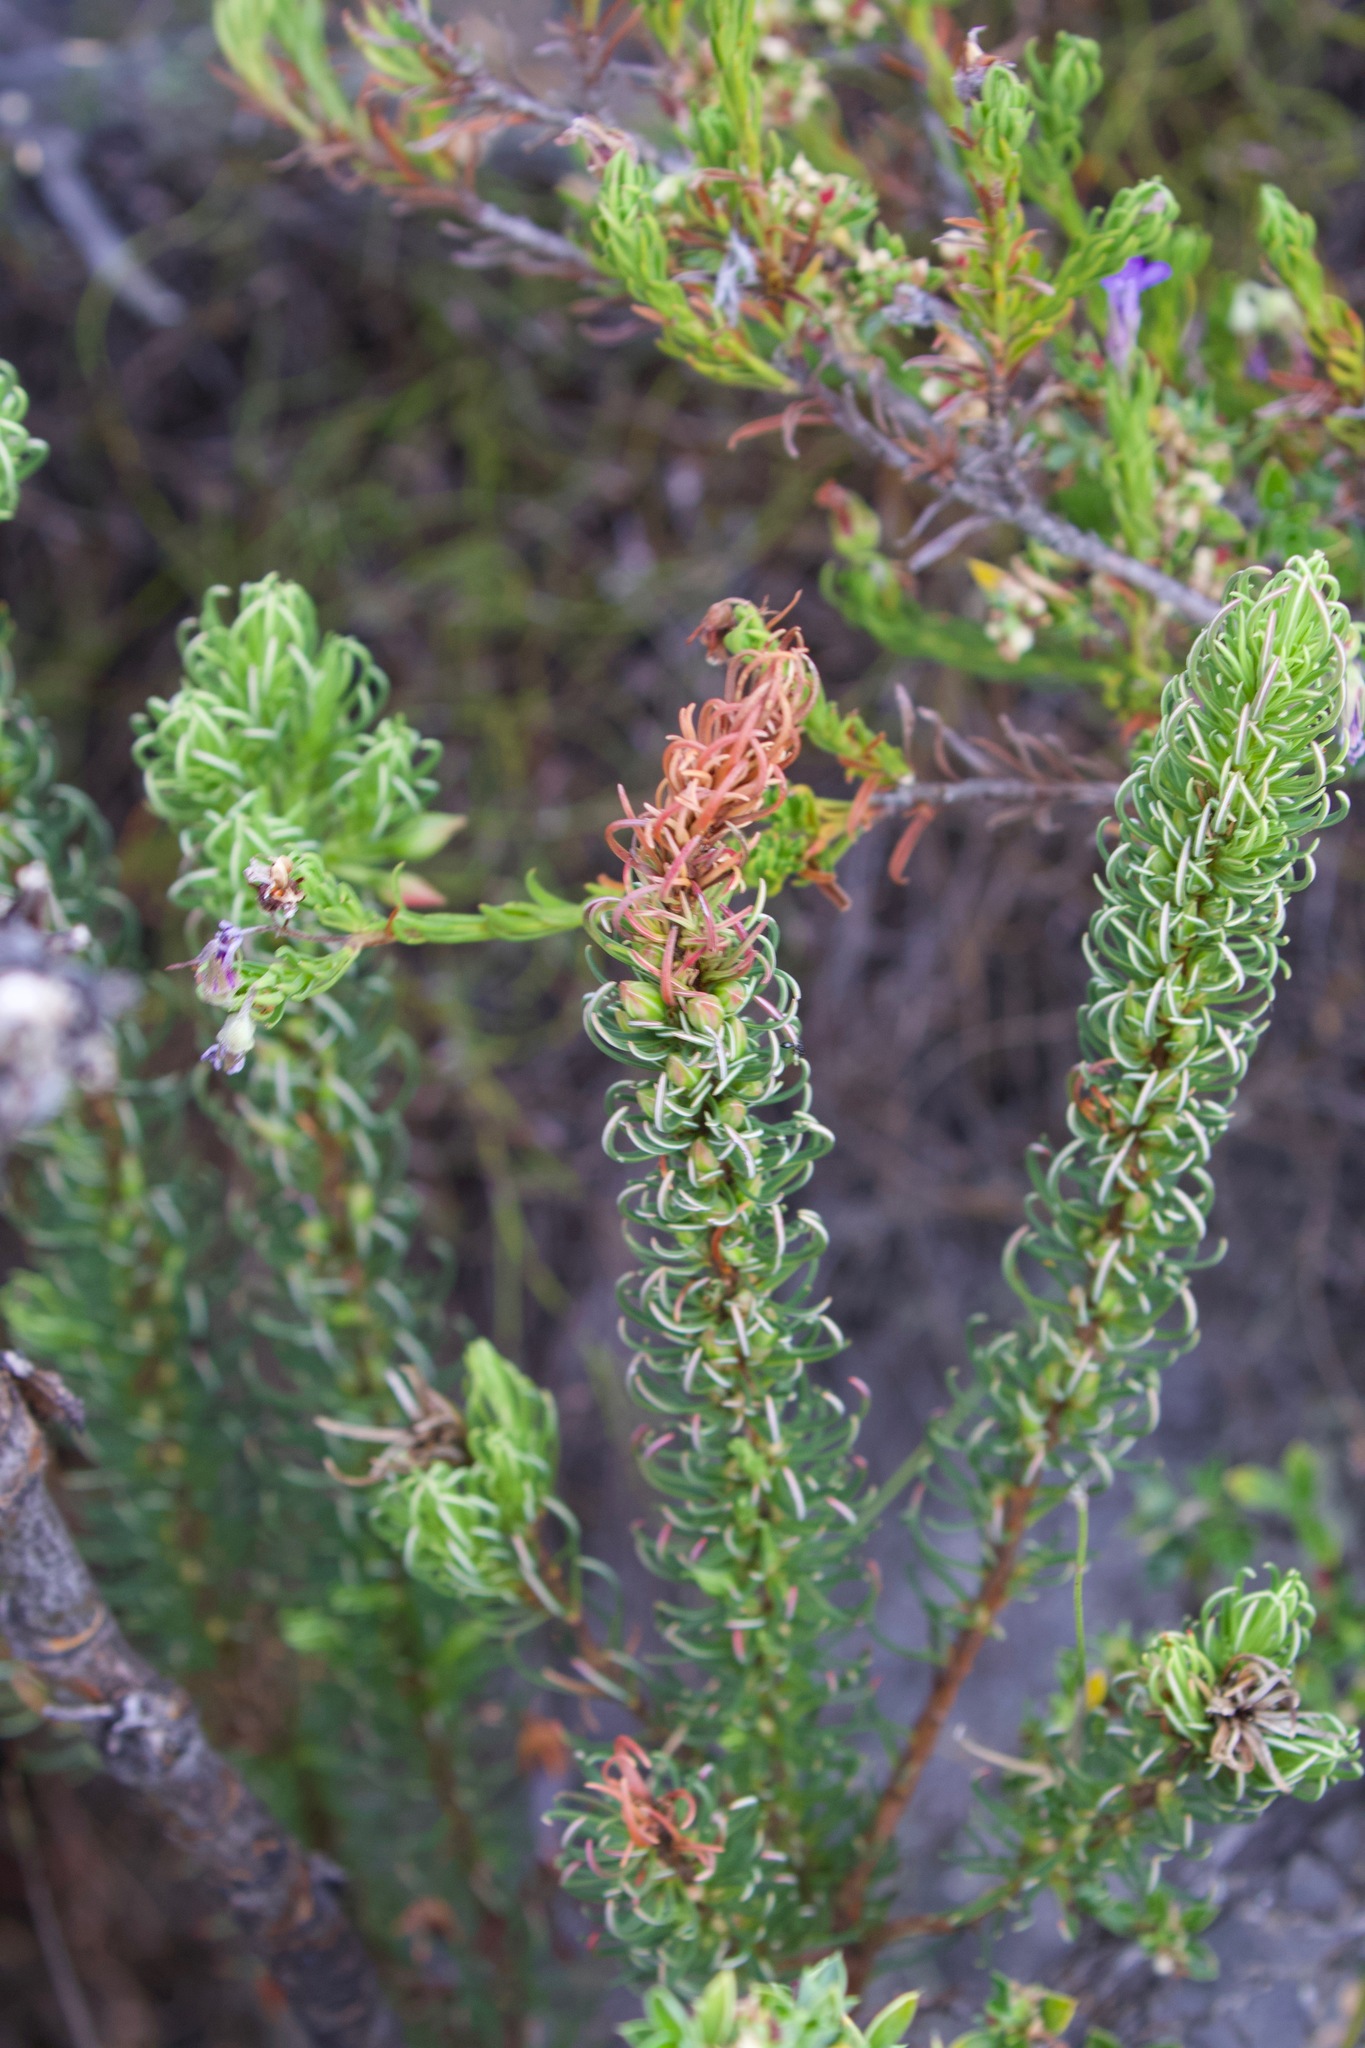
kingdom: Plantae
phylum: Tracheophyta
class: Magnoliopsida
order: Ericales
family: Ericaceae
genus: Erica
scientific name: Erica plukenetii
